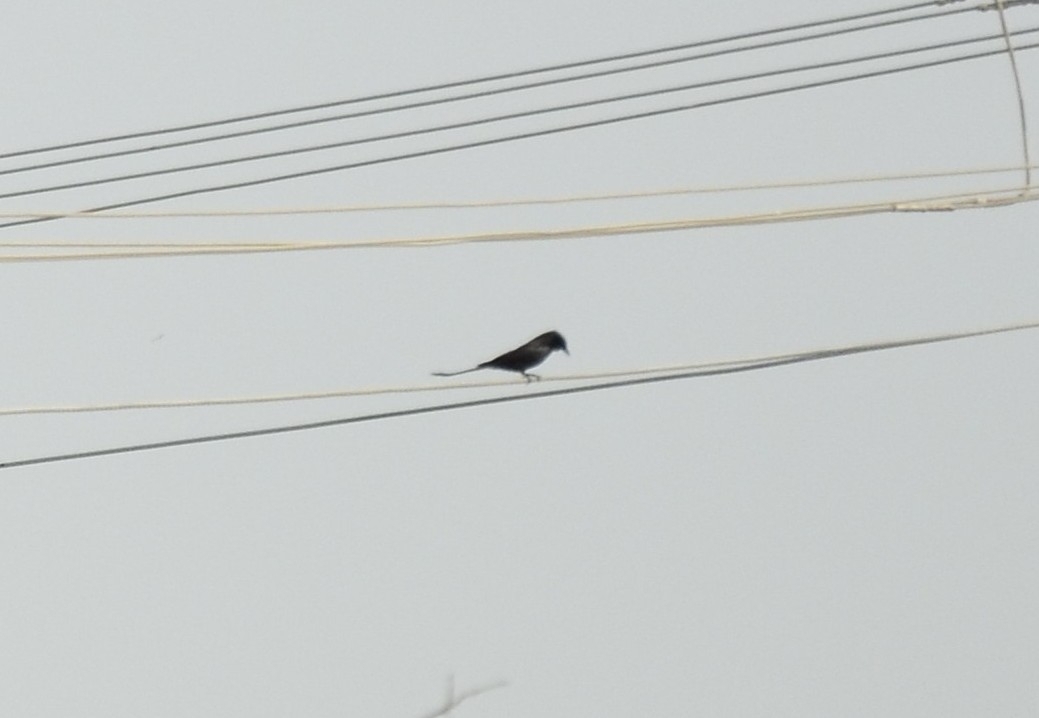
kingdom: Animalia
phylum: Chordata
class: Aves
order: Passeriformes
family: Dicruridae
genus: Dicrurus
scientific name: Dicrurus macrocercus
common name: Black drongo
